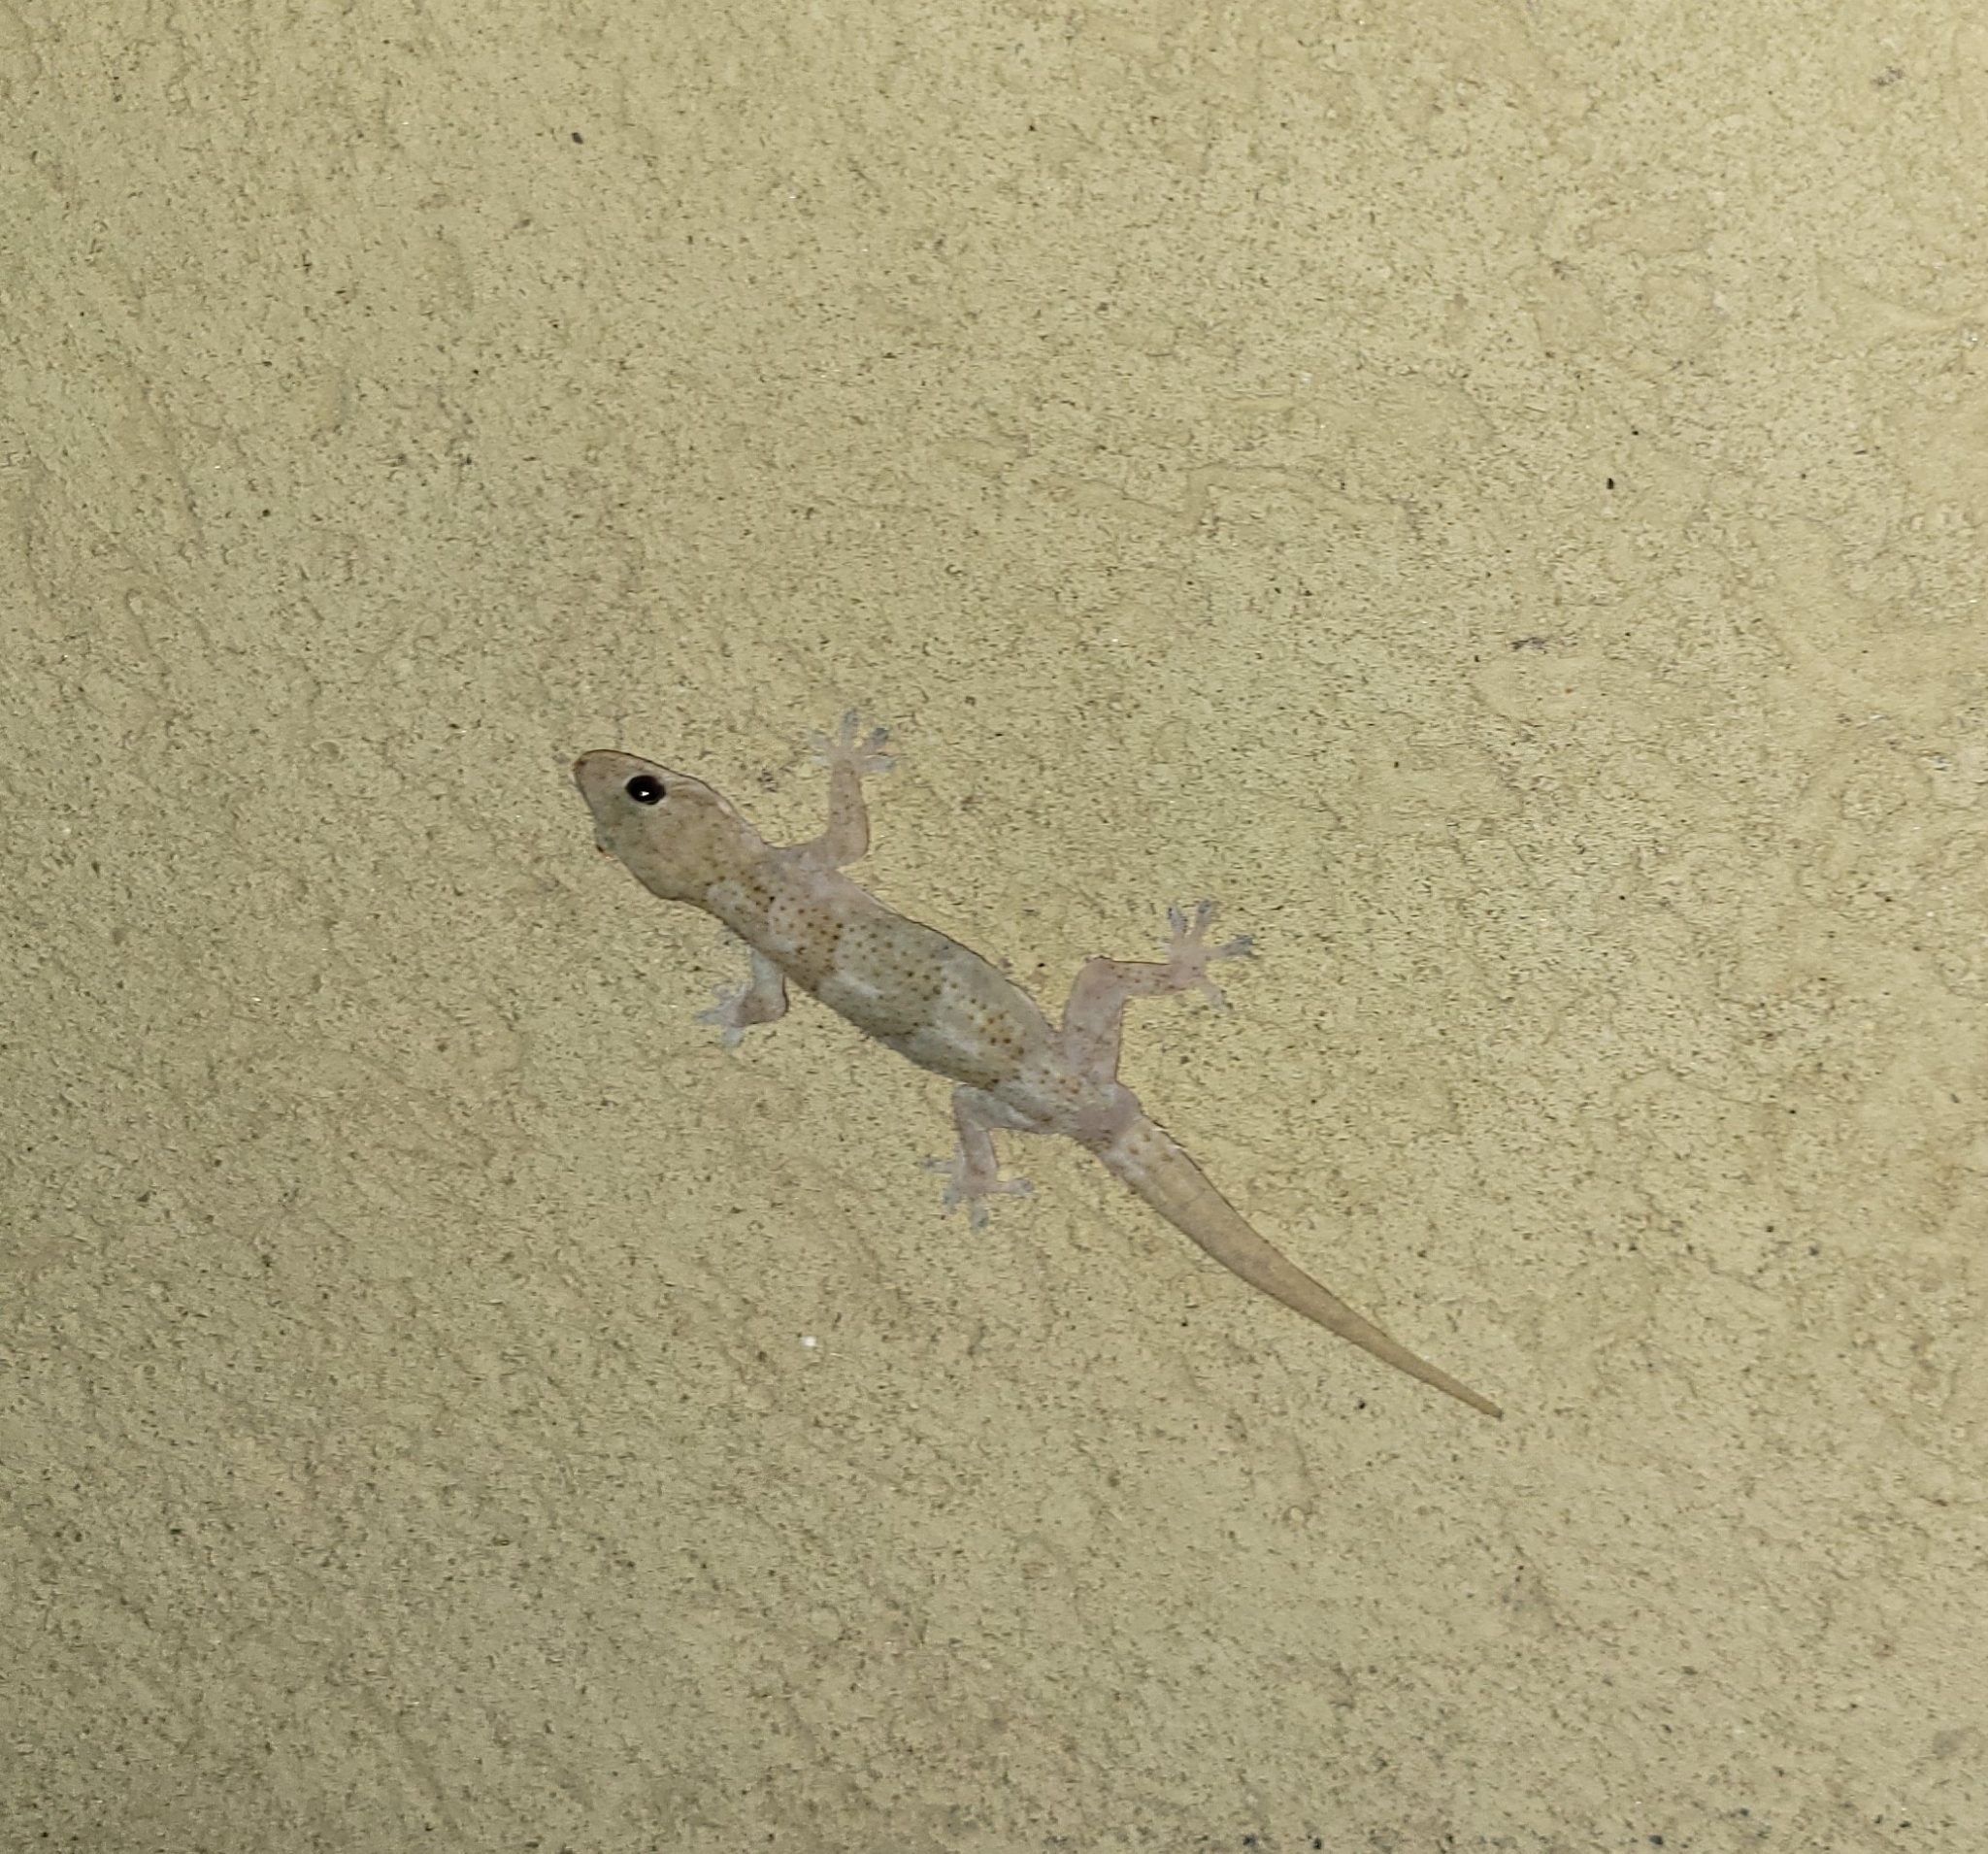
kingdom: Animalia
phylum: Chordata
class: Squamata
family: Gekkonidae
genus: Hemidactylus
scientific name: Hemidactylus mabouia
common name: House gecko
